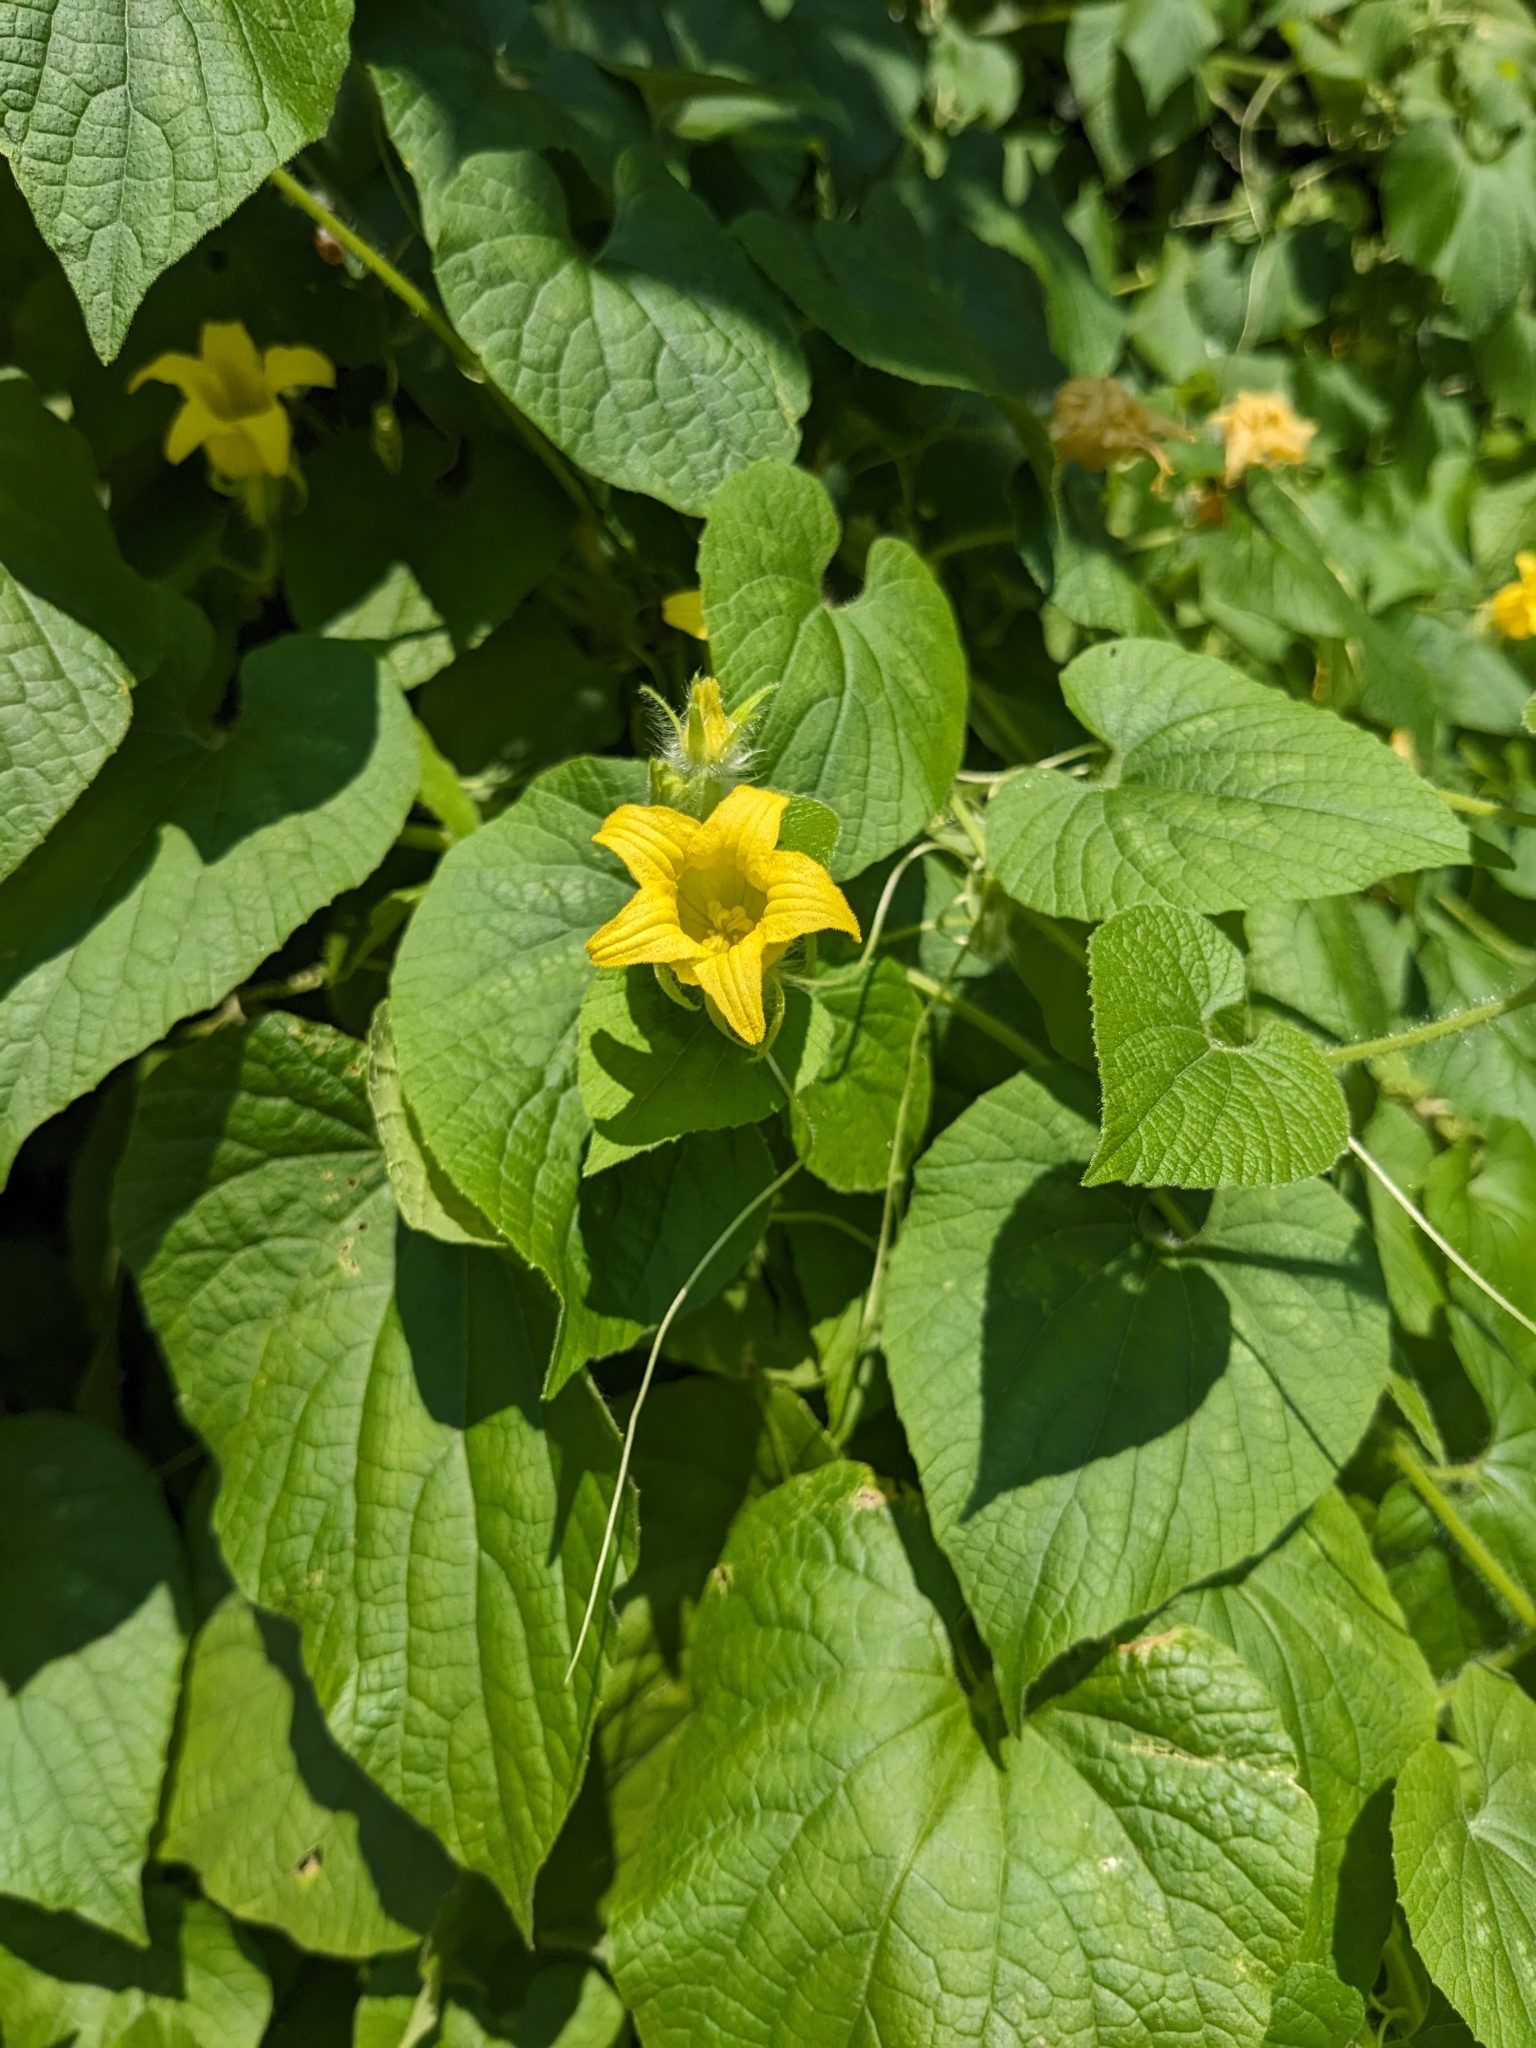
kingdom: Plantae
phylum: Tracheophyta
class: Magnoliopsida
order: Cucurbitales
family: Cucurbitaceae
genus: Thladiantha
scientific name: Thladiantha dubia
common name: Manchu tubergourd
